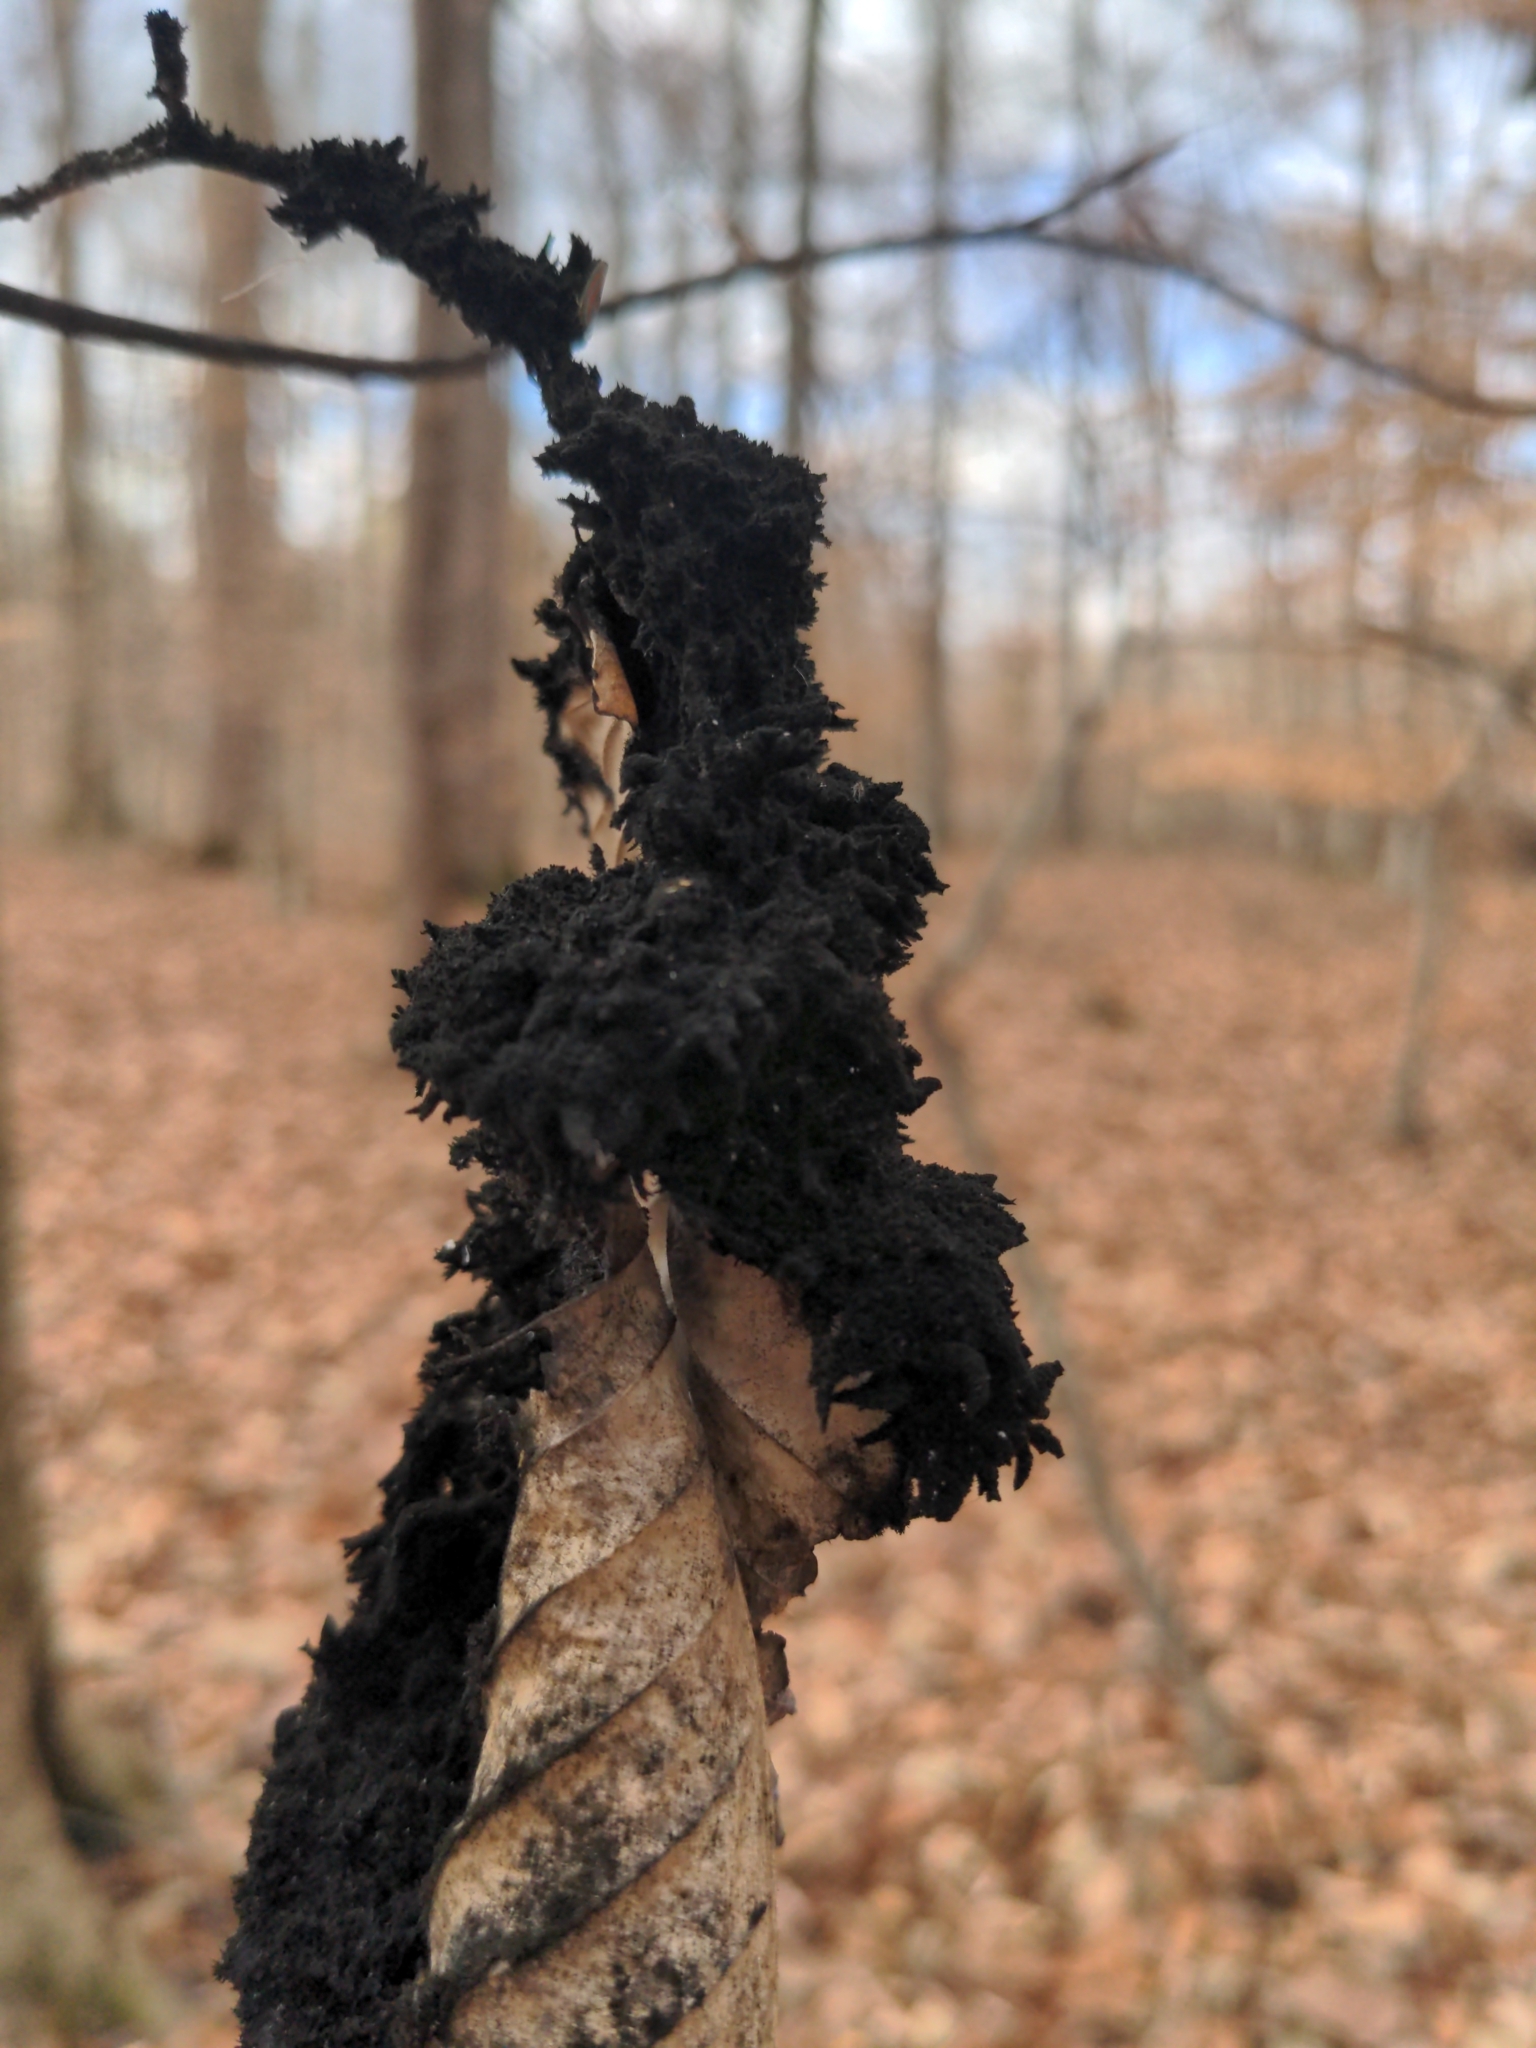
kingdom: Fungi
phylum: Ascomycota
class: Dothideomycetes
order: Capnodiales
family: Capnodiaceae
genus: Scorias
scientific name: Scorias spongiosa
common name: Black sooty mold
